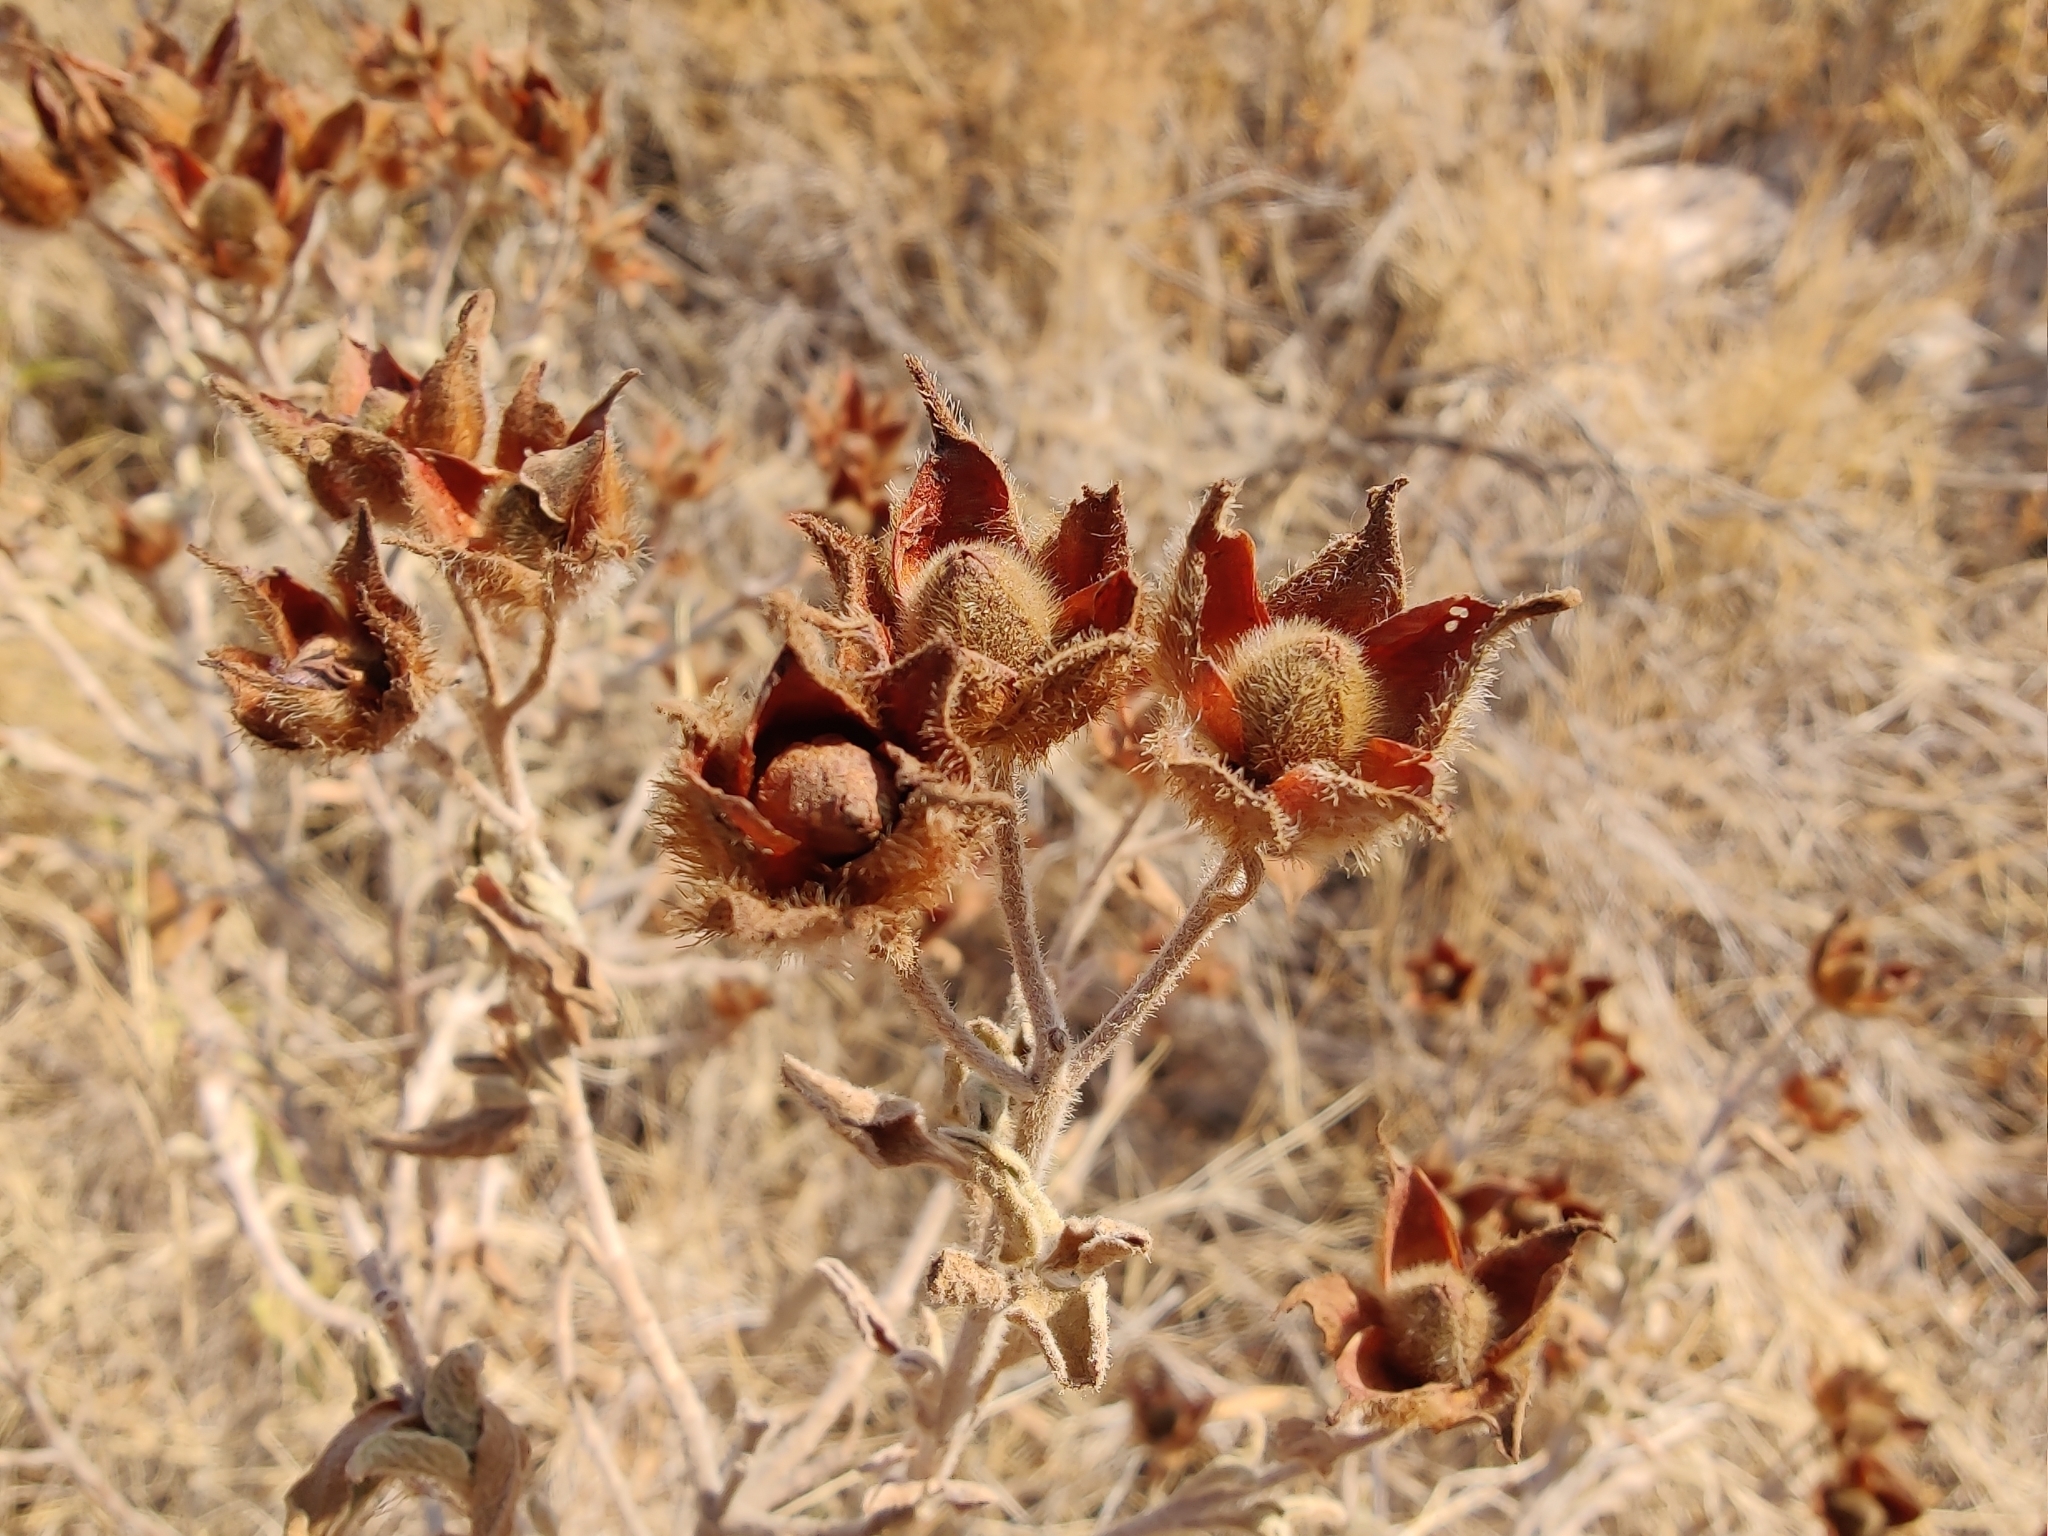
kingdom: Plantae
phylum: Tracheophyta
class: Magnoliopsida
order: Malvales
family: Cistaceae
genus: Cistus
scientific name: Cistus creticus
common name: Cretan rockrose
